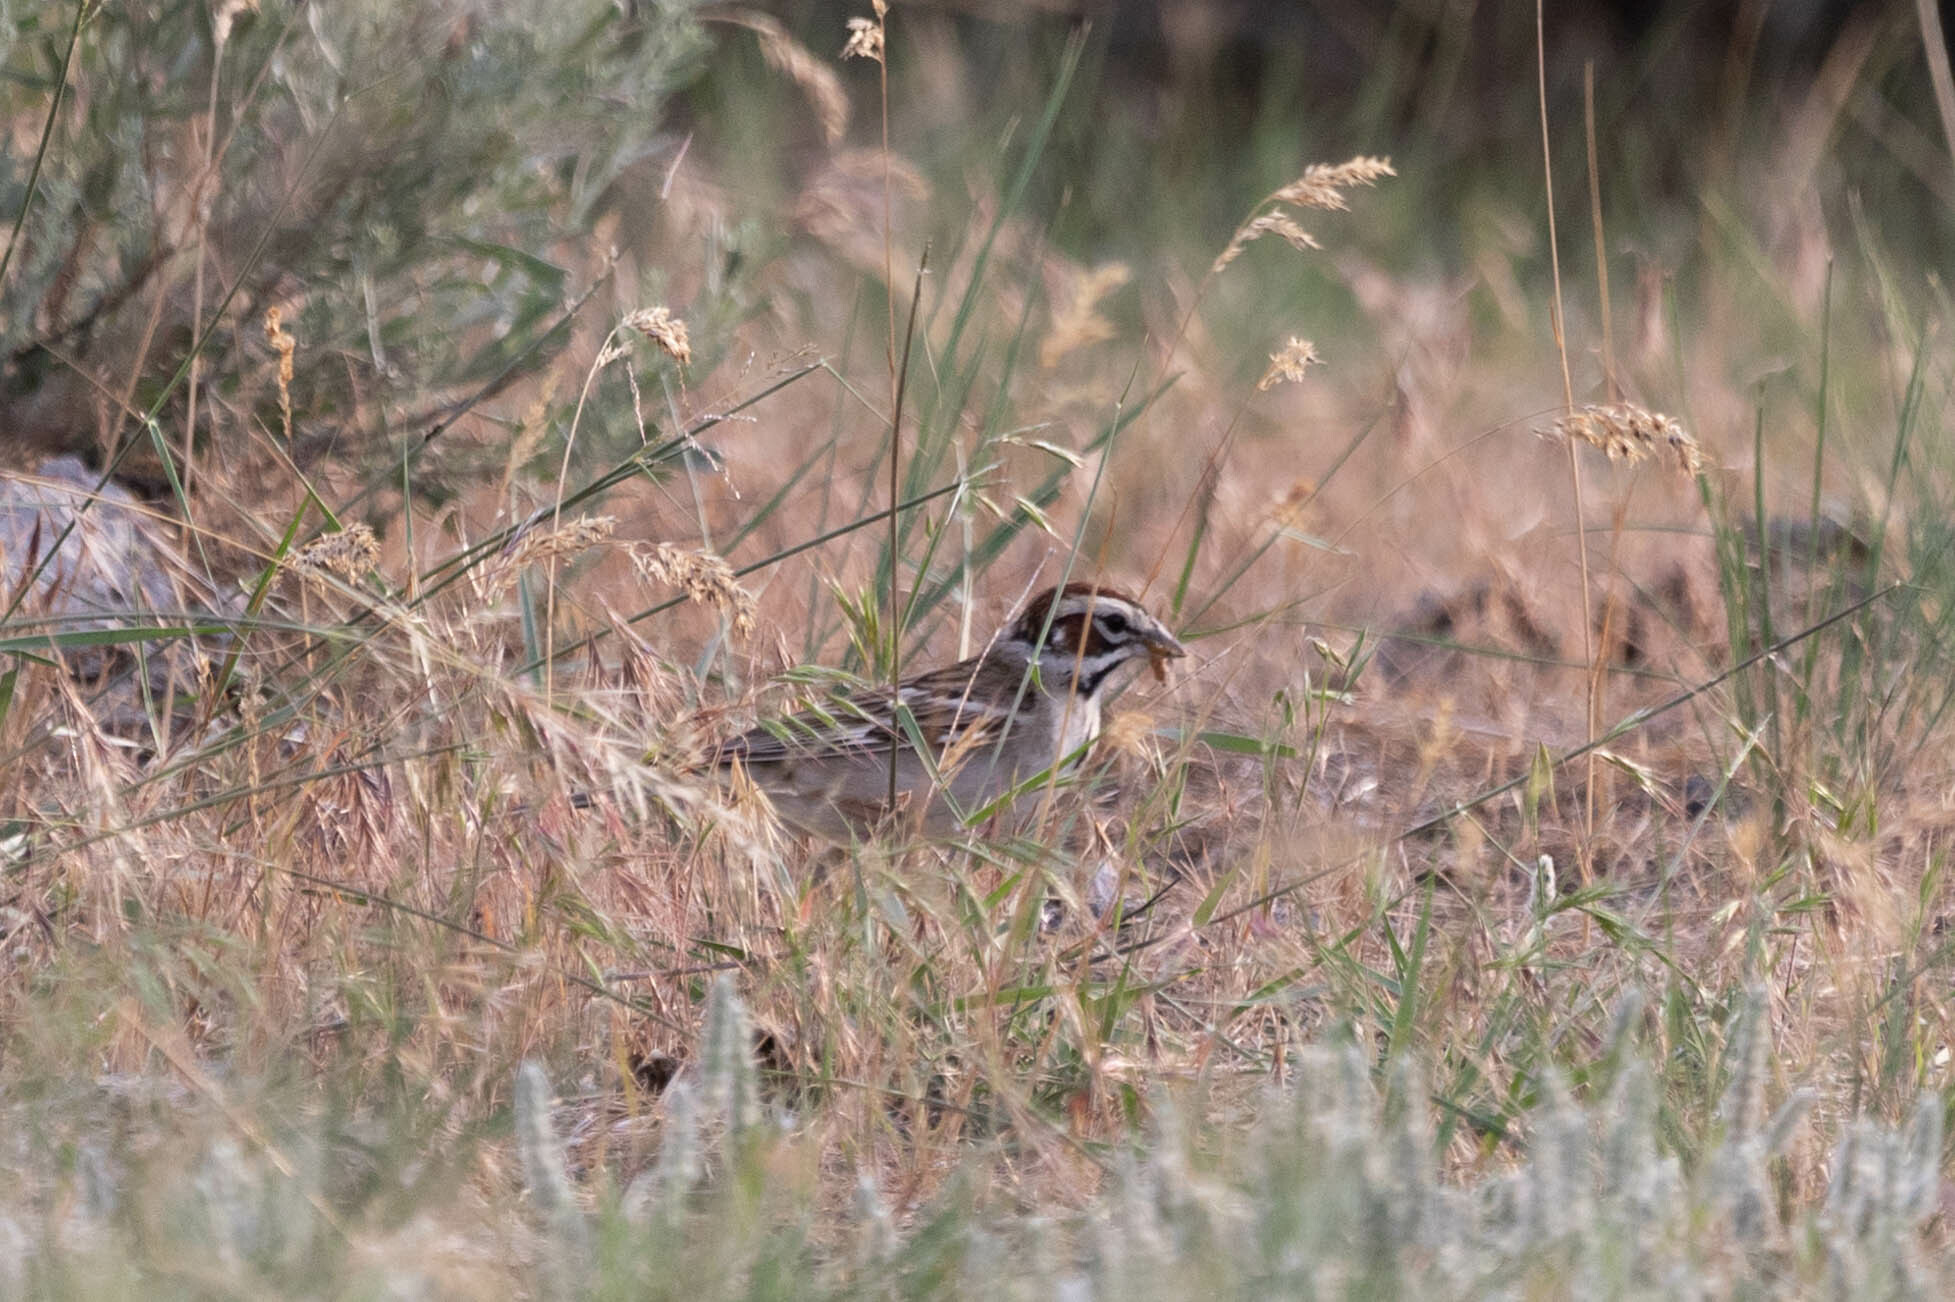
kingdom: Animalia
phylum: Chordata
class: Aves
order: Passeriformes
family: Passerellidae
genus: Chondestes
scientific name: Chondestes grammacus
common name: Lark sparrow
